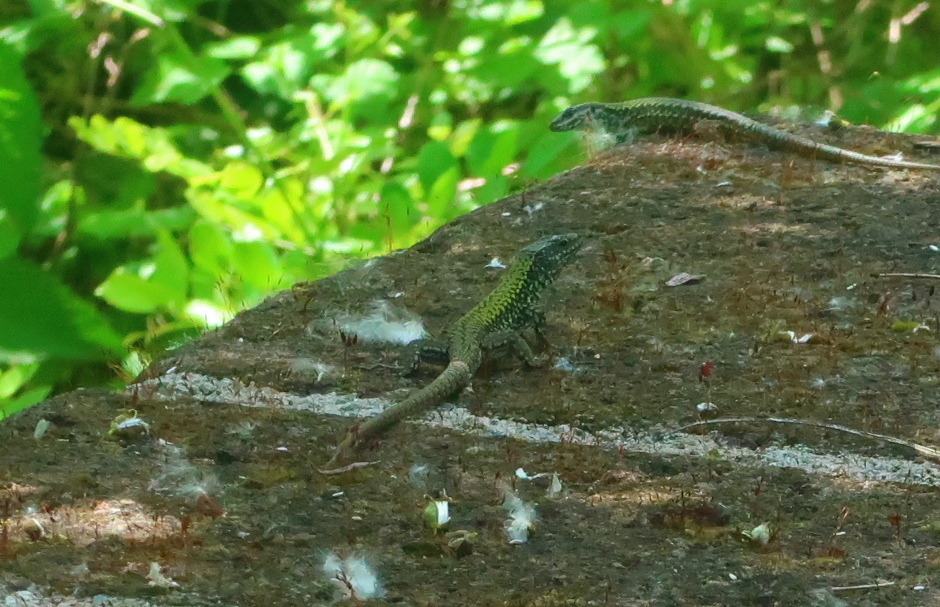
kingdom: Animalia
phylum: Chordata
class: Squamata
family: Lacertidae
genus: Podarcis
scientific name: Podarcis muralis
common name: Common wall lizard
